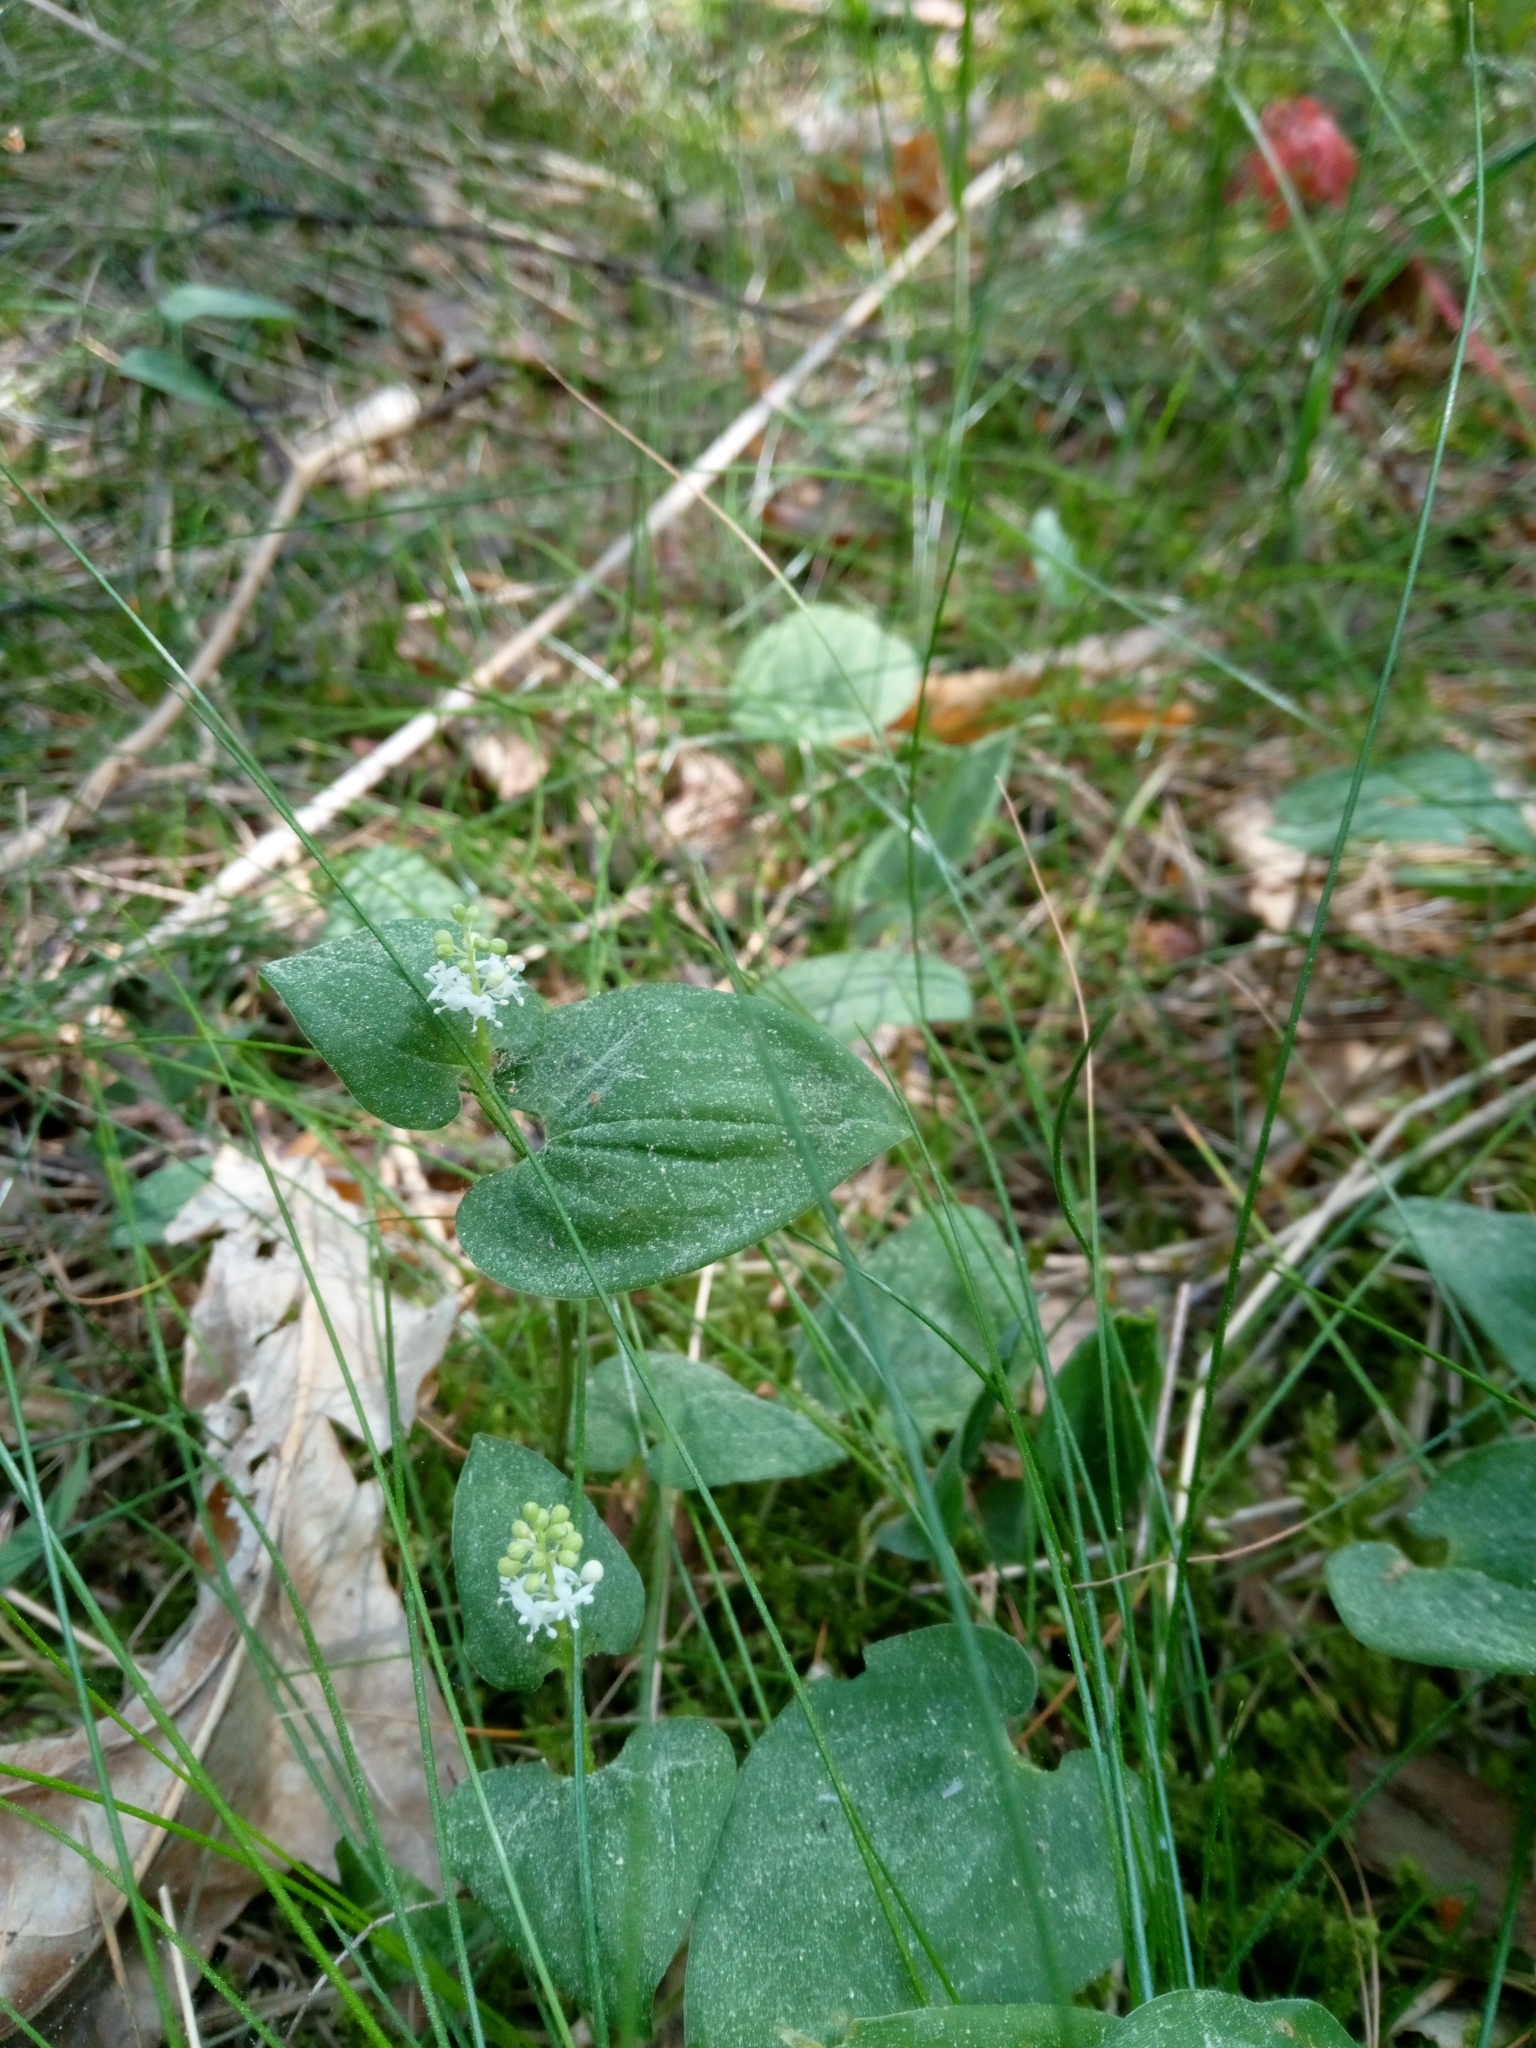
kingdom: Plantae
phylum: Tracheophyta
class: Liliopsida
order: Asparagales
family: Asparagaceae
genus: Maianthemum
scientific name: Maianthemum bifolium
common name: May lily
